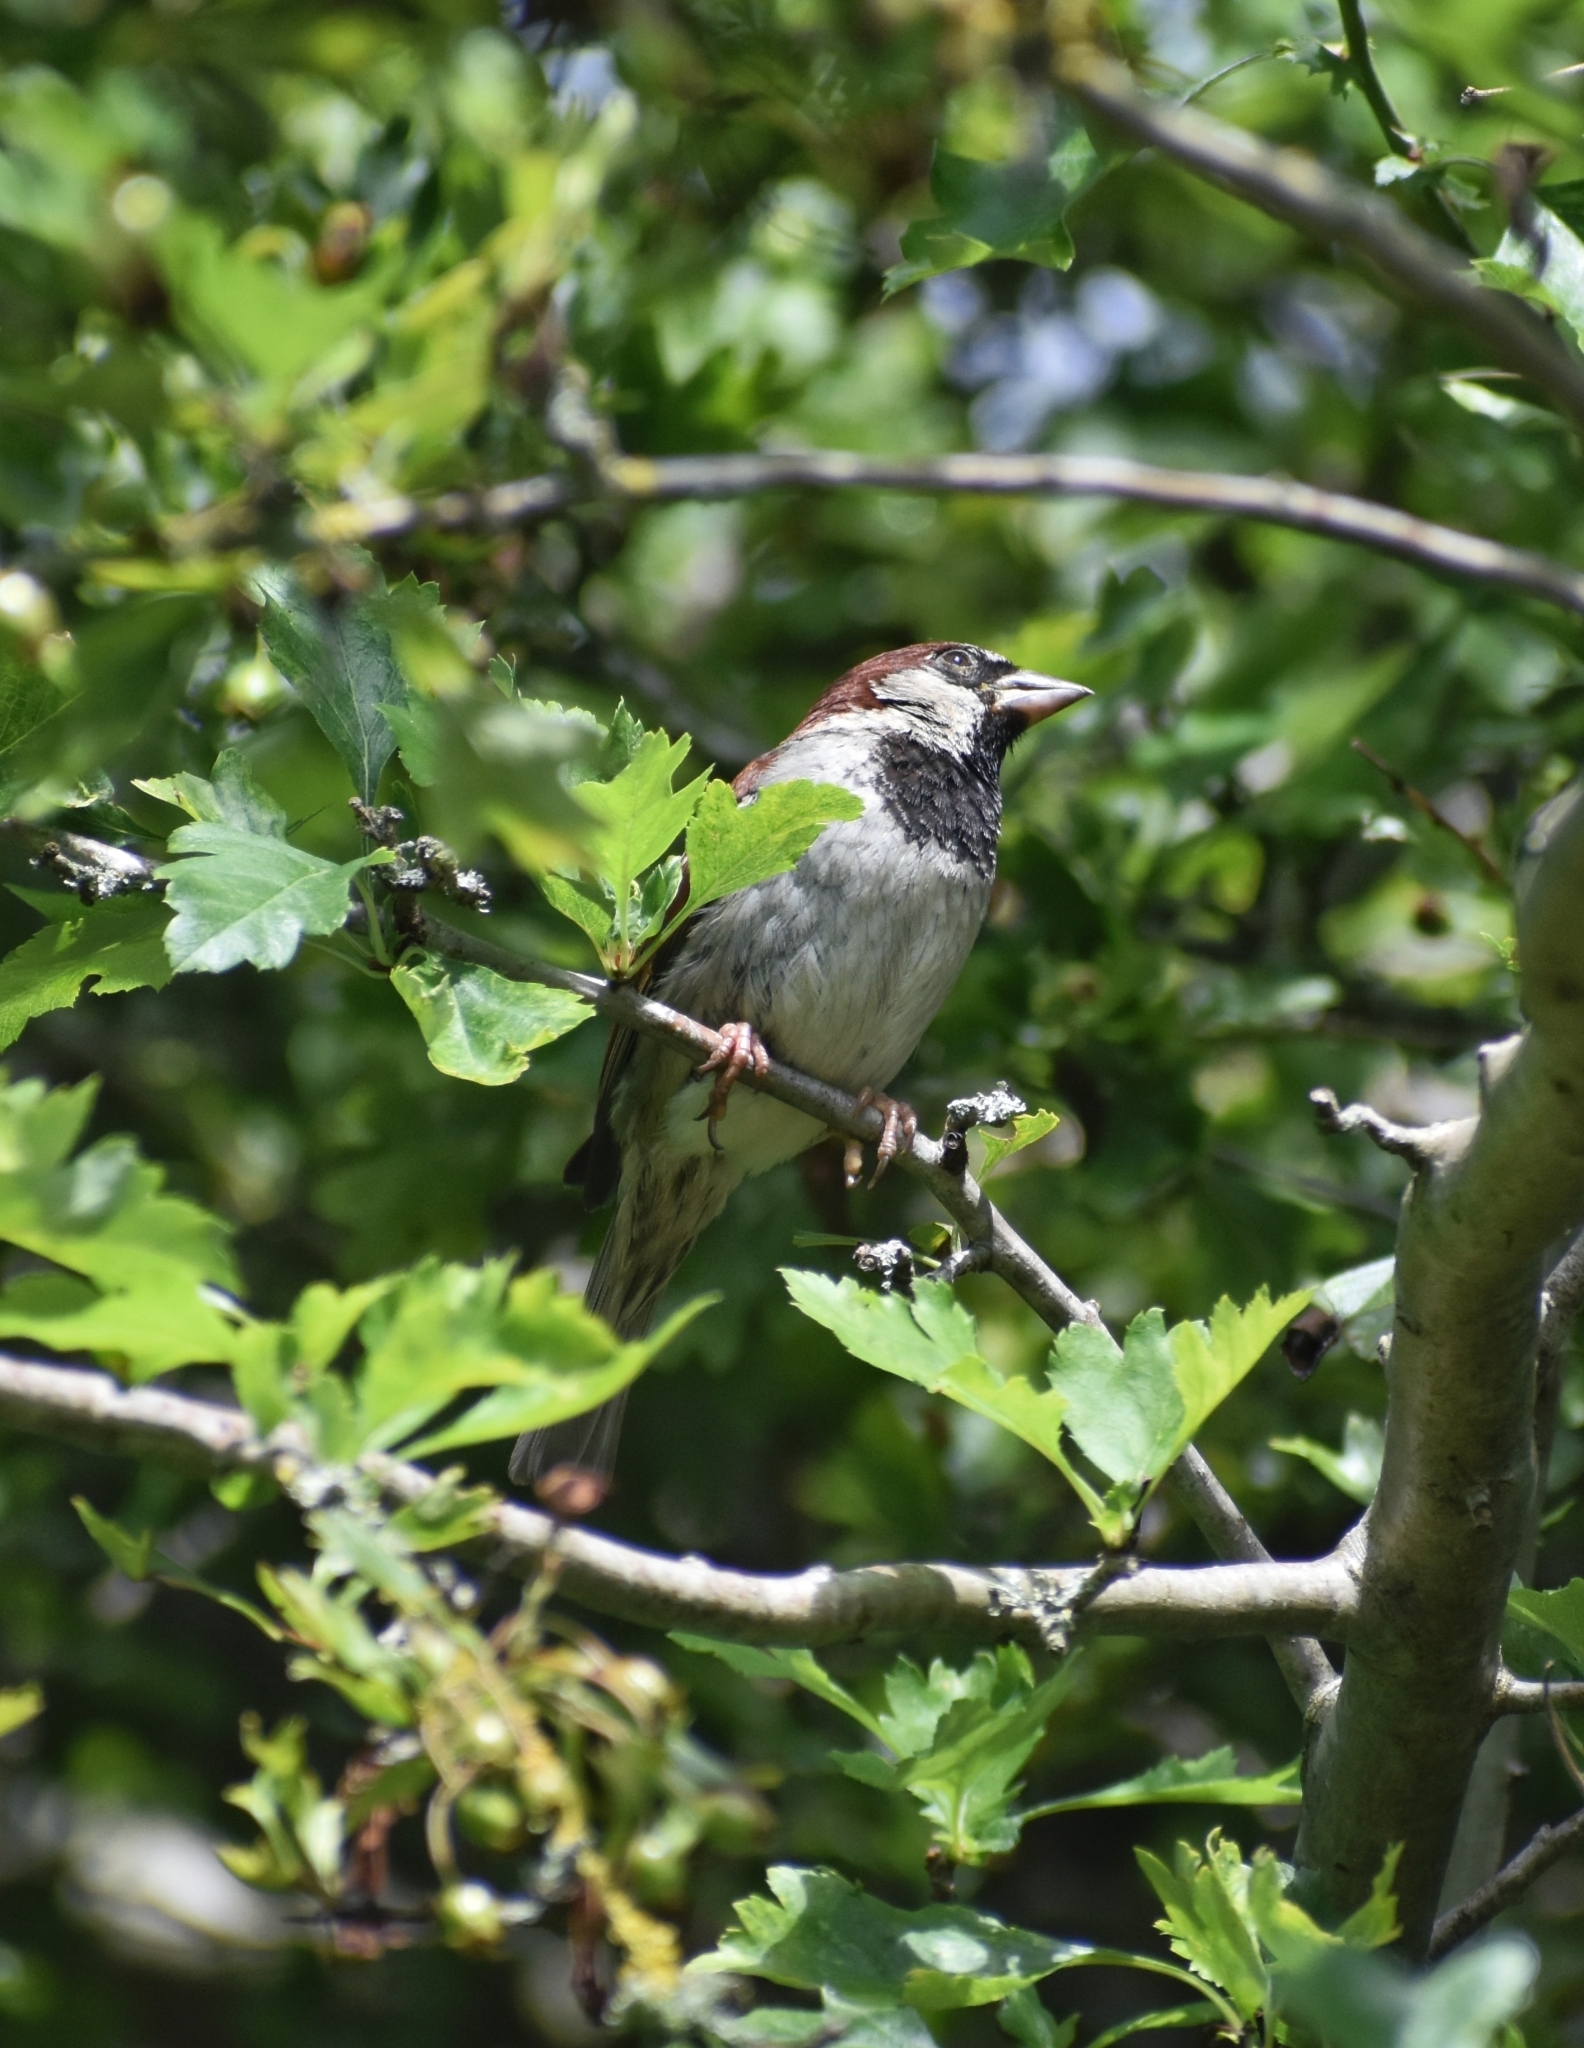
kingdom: Animalia
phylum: Chordata
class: Aves
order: Passeriformes
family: Passeridae
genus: Passer
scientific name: Passer domesticus
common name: House sparrow
